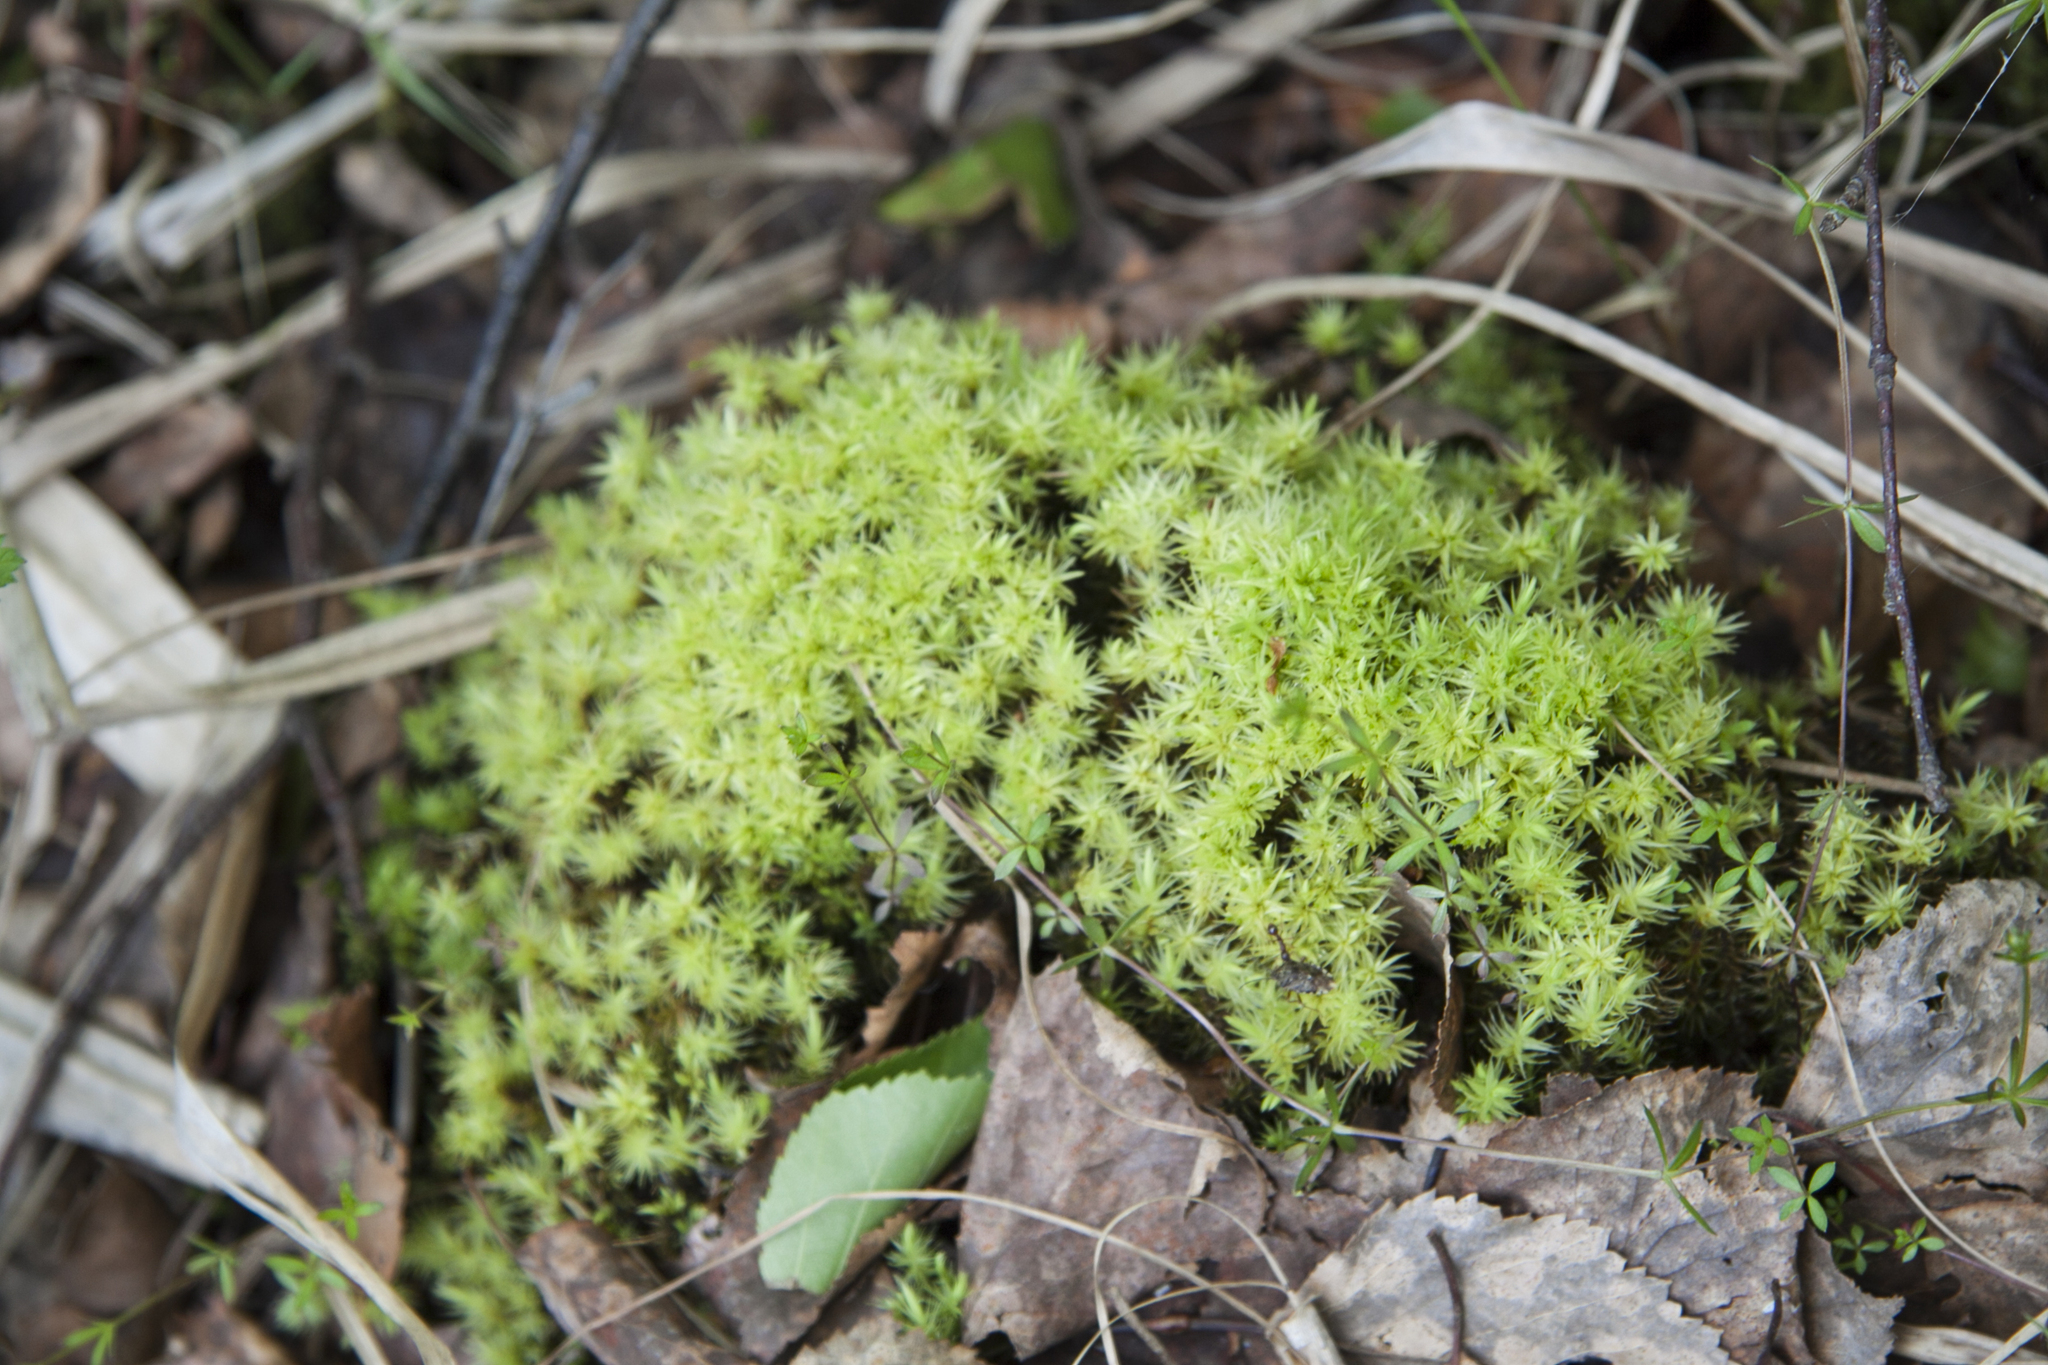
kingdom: Plantae
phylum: Bryophyta
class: Bryopsida
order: Aulacomniales
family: Aulacomniaceae
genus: Aulacomnium
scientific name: Aulacomnium palustre
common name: Bog groove-moss
